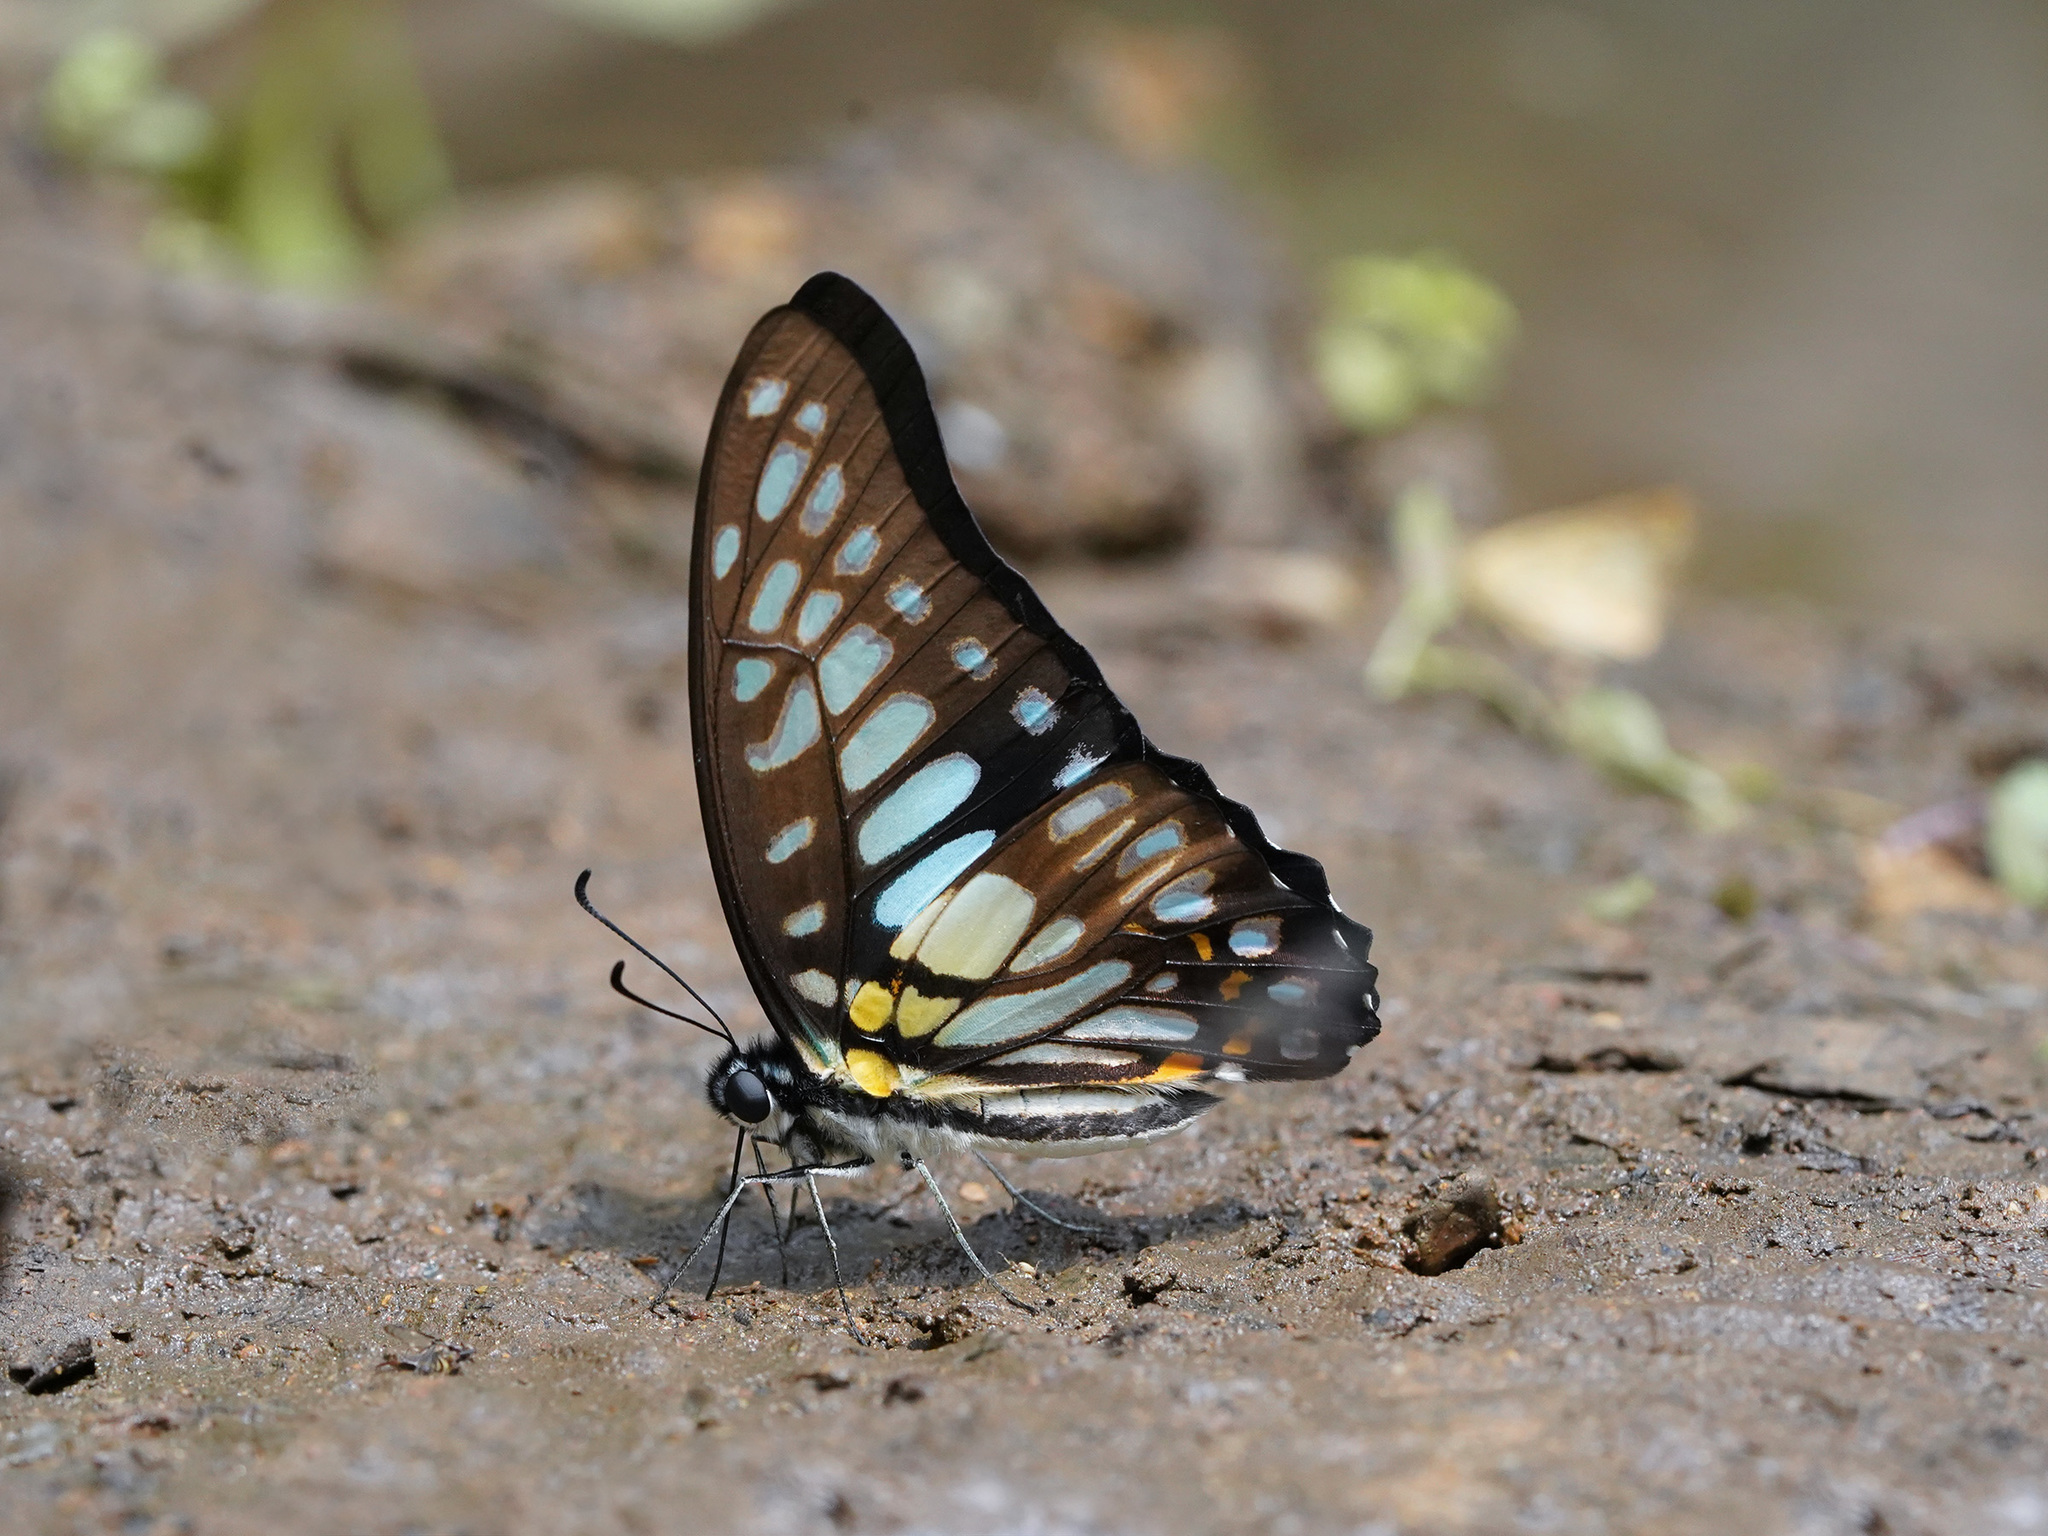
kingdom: Animalia
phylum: Arthropoda
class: Insecta
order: Lepidoptera
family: Papilionidae
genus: Graphium
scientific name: Graphium chironides
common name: Veined jay
